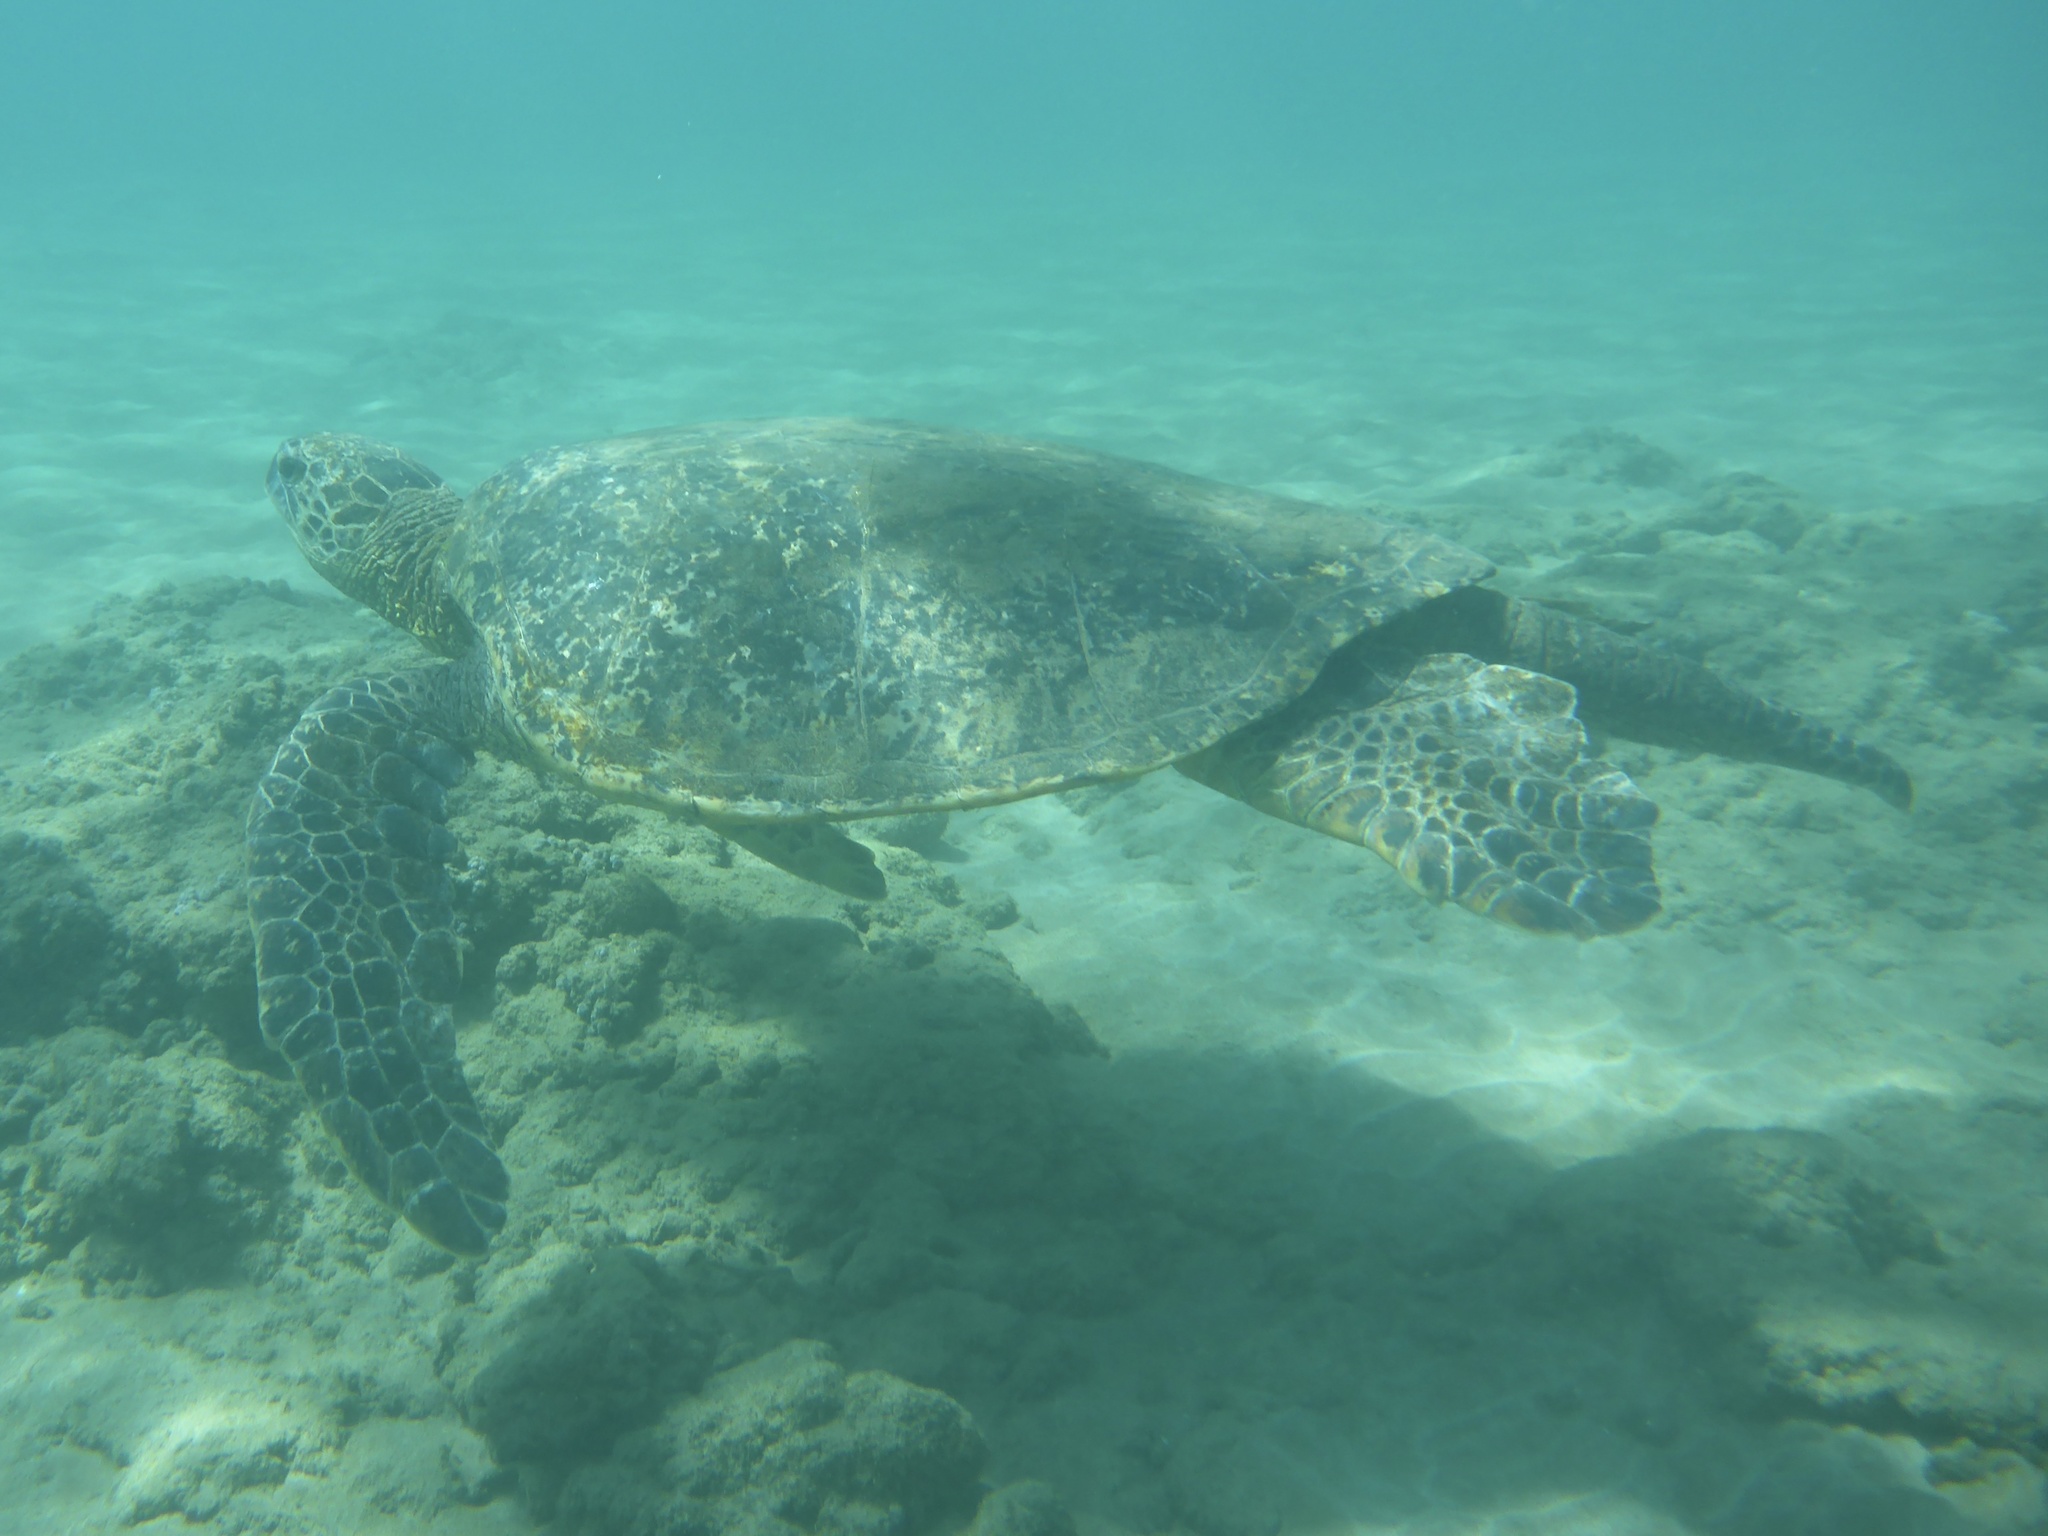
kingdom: Animalia
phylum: Chordata
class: Testudines
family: Cheloniidae
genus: Chelonia
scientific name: Chelonia mydas
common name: Green turtle
